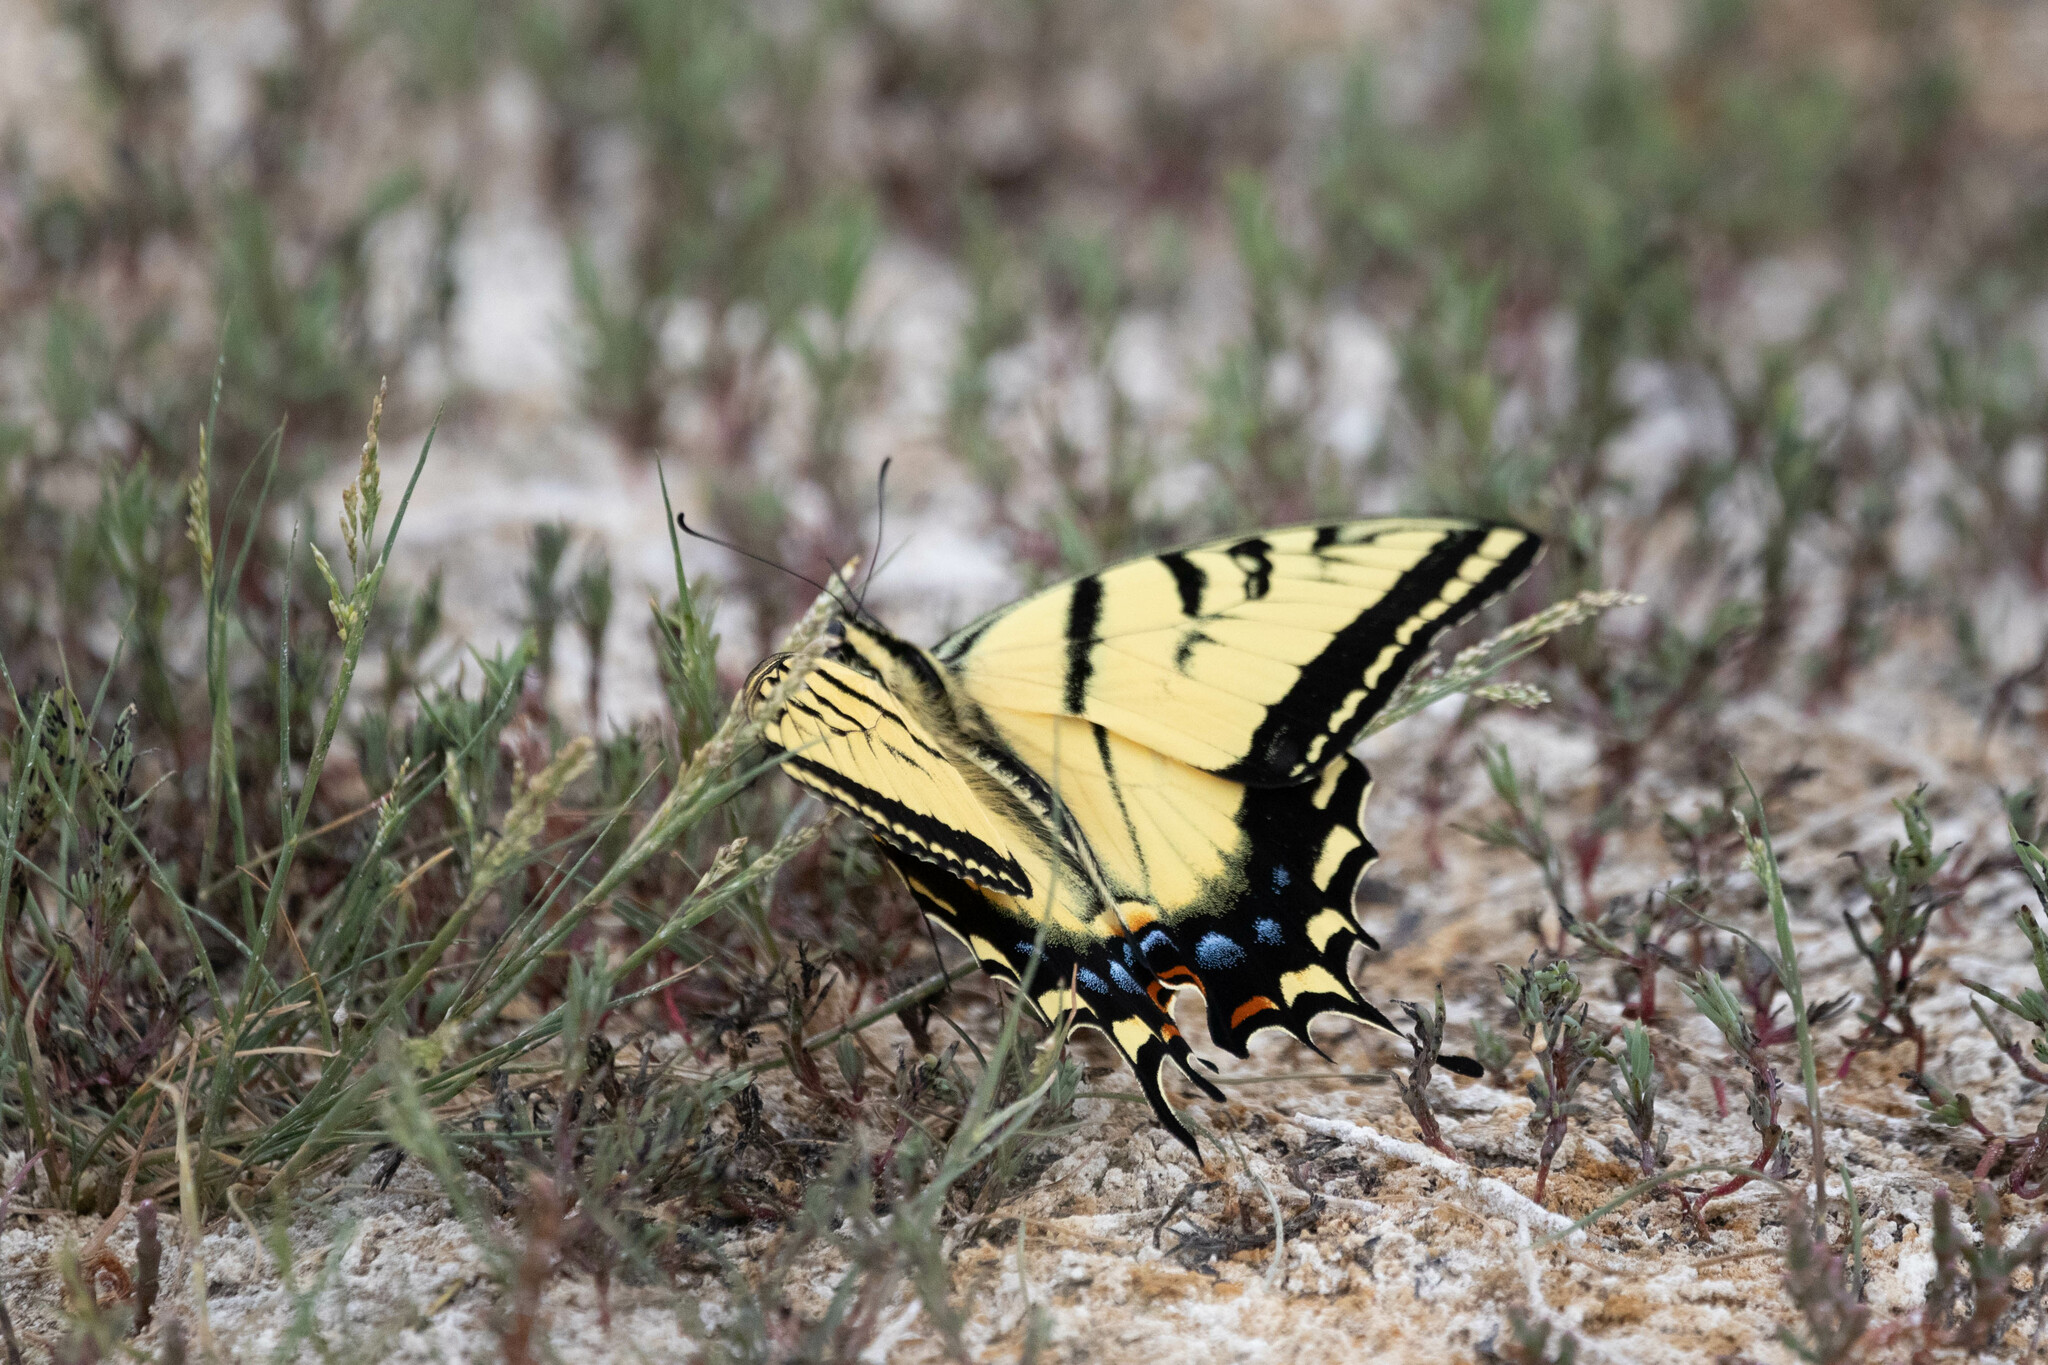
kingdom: Animalia
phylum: Arthropoda
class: Insecta
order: Lepidoptera
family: Papilionidae
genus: Papilio
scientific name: Papilio multicaudata
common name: Two-tailed tiger swallowtail
